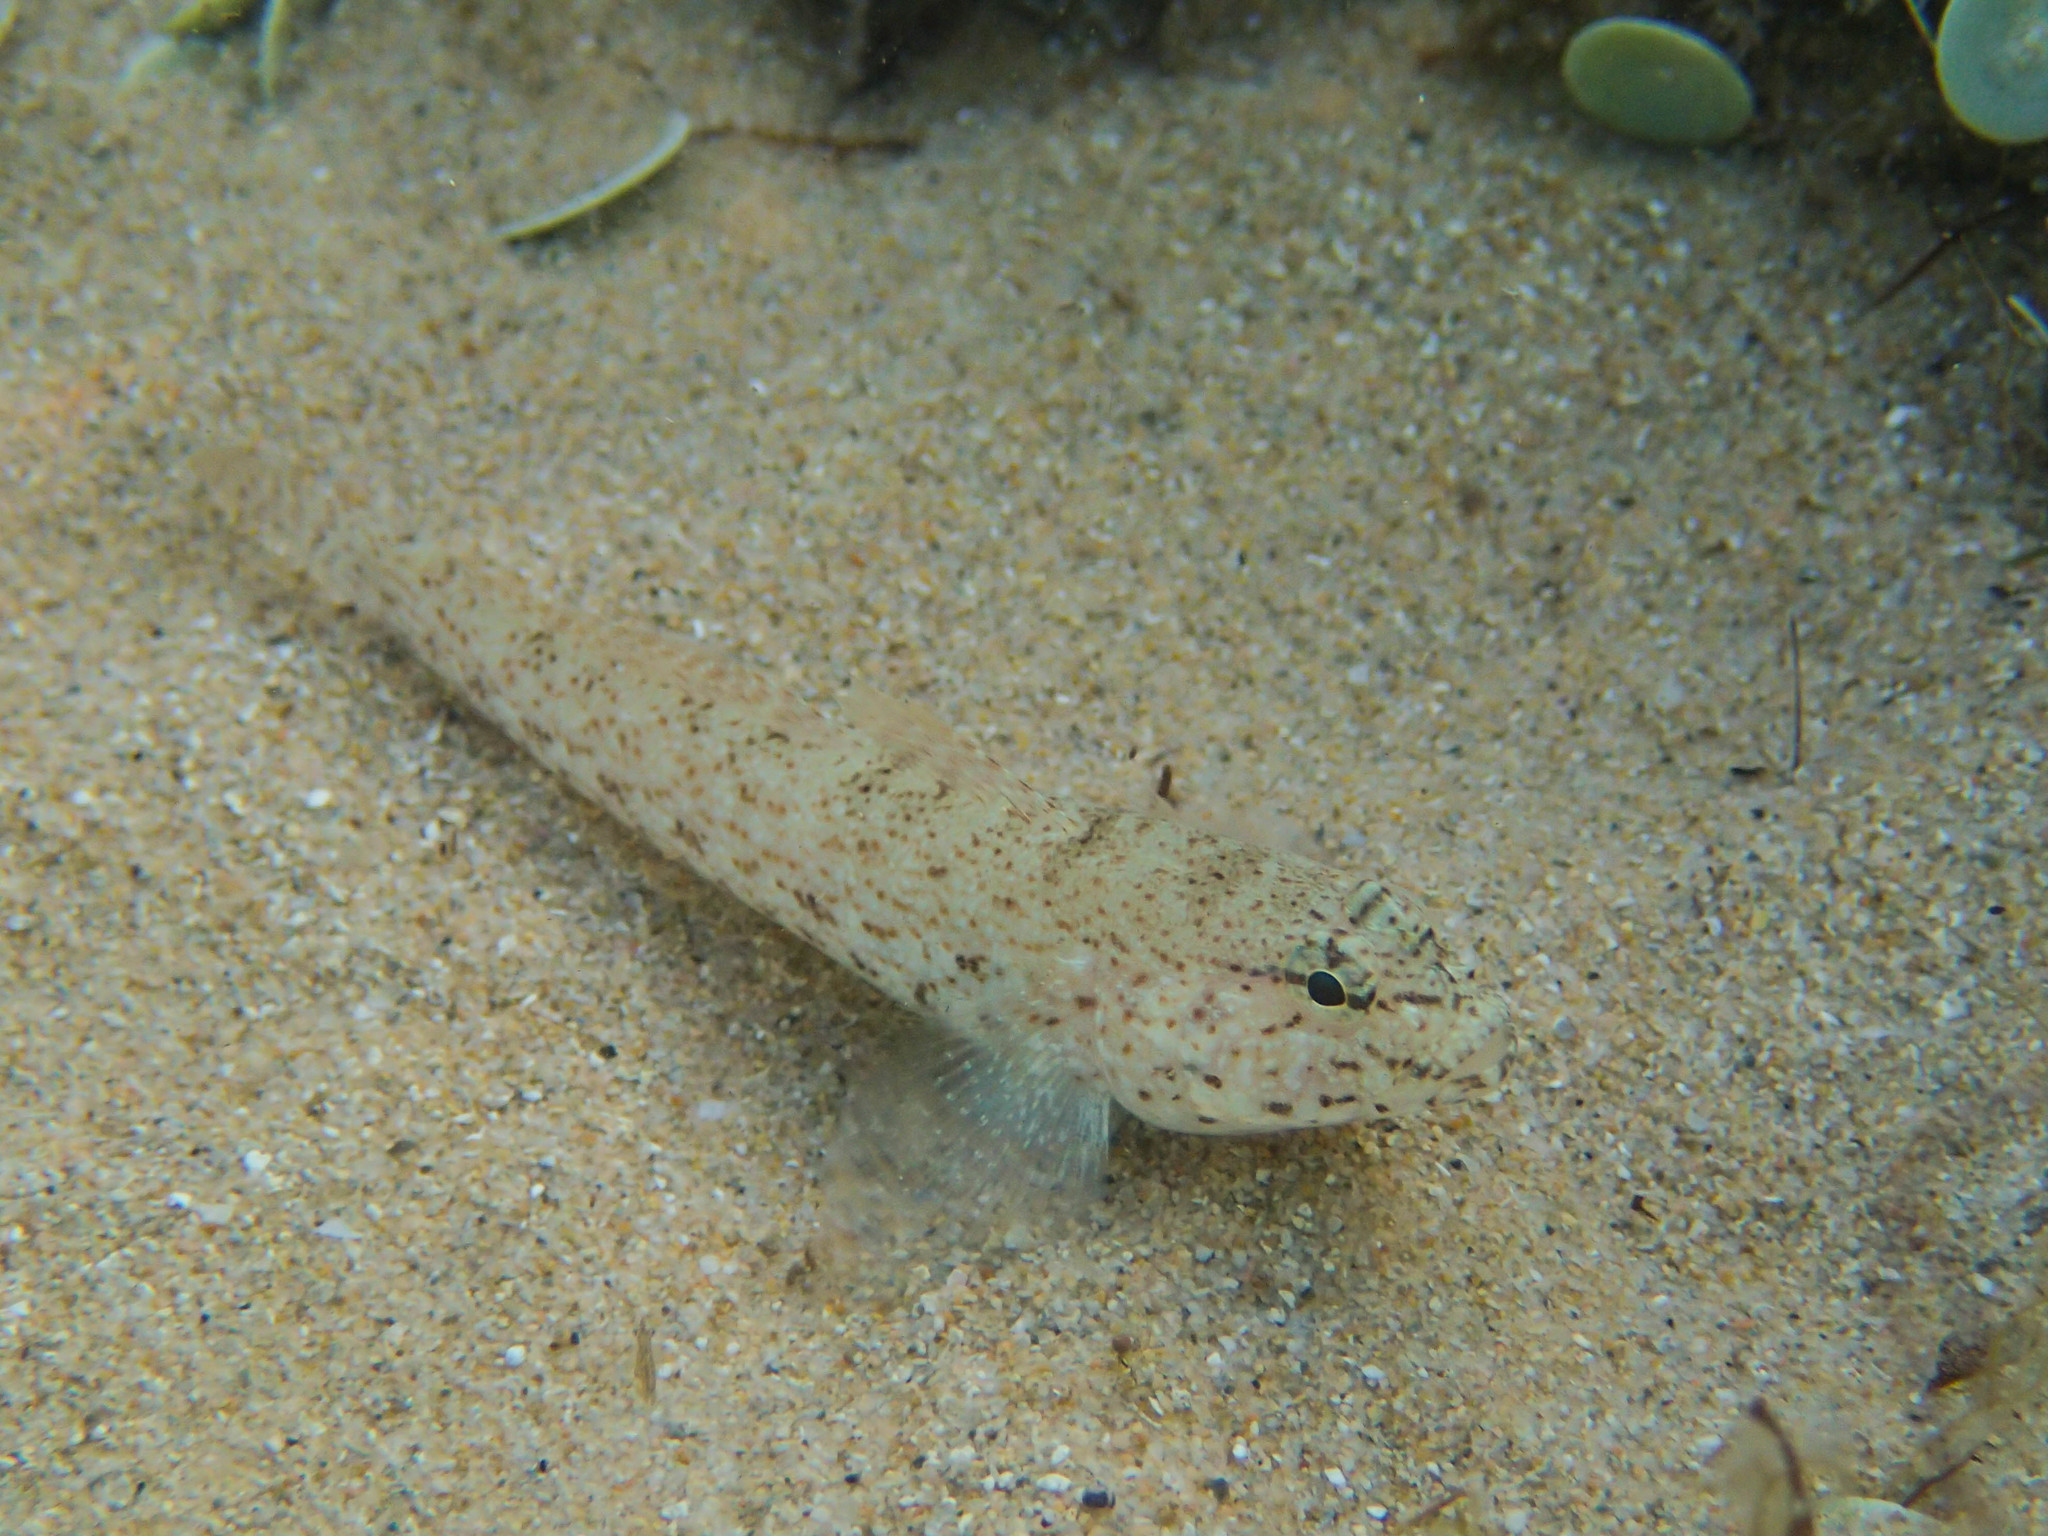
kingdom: Animalia
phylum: Chordata
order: Perciformes
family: Gobiidae
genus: Gobius
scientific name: Gobius incognitus
